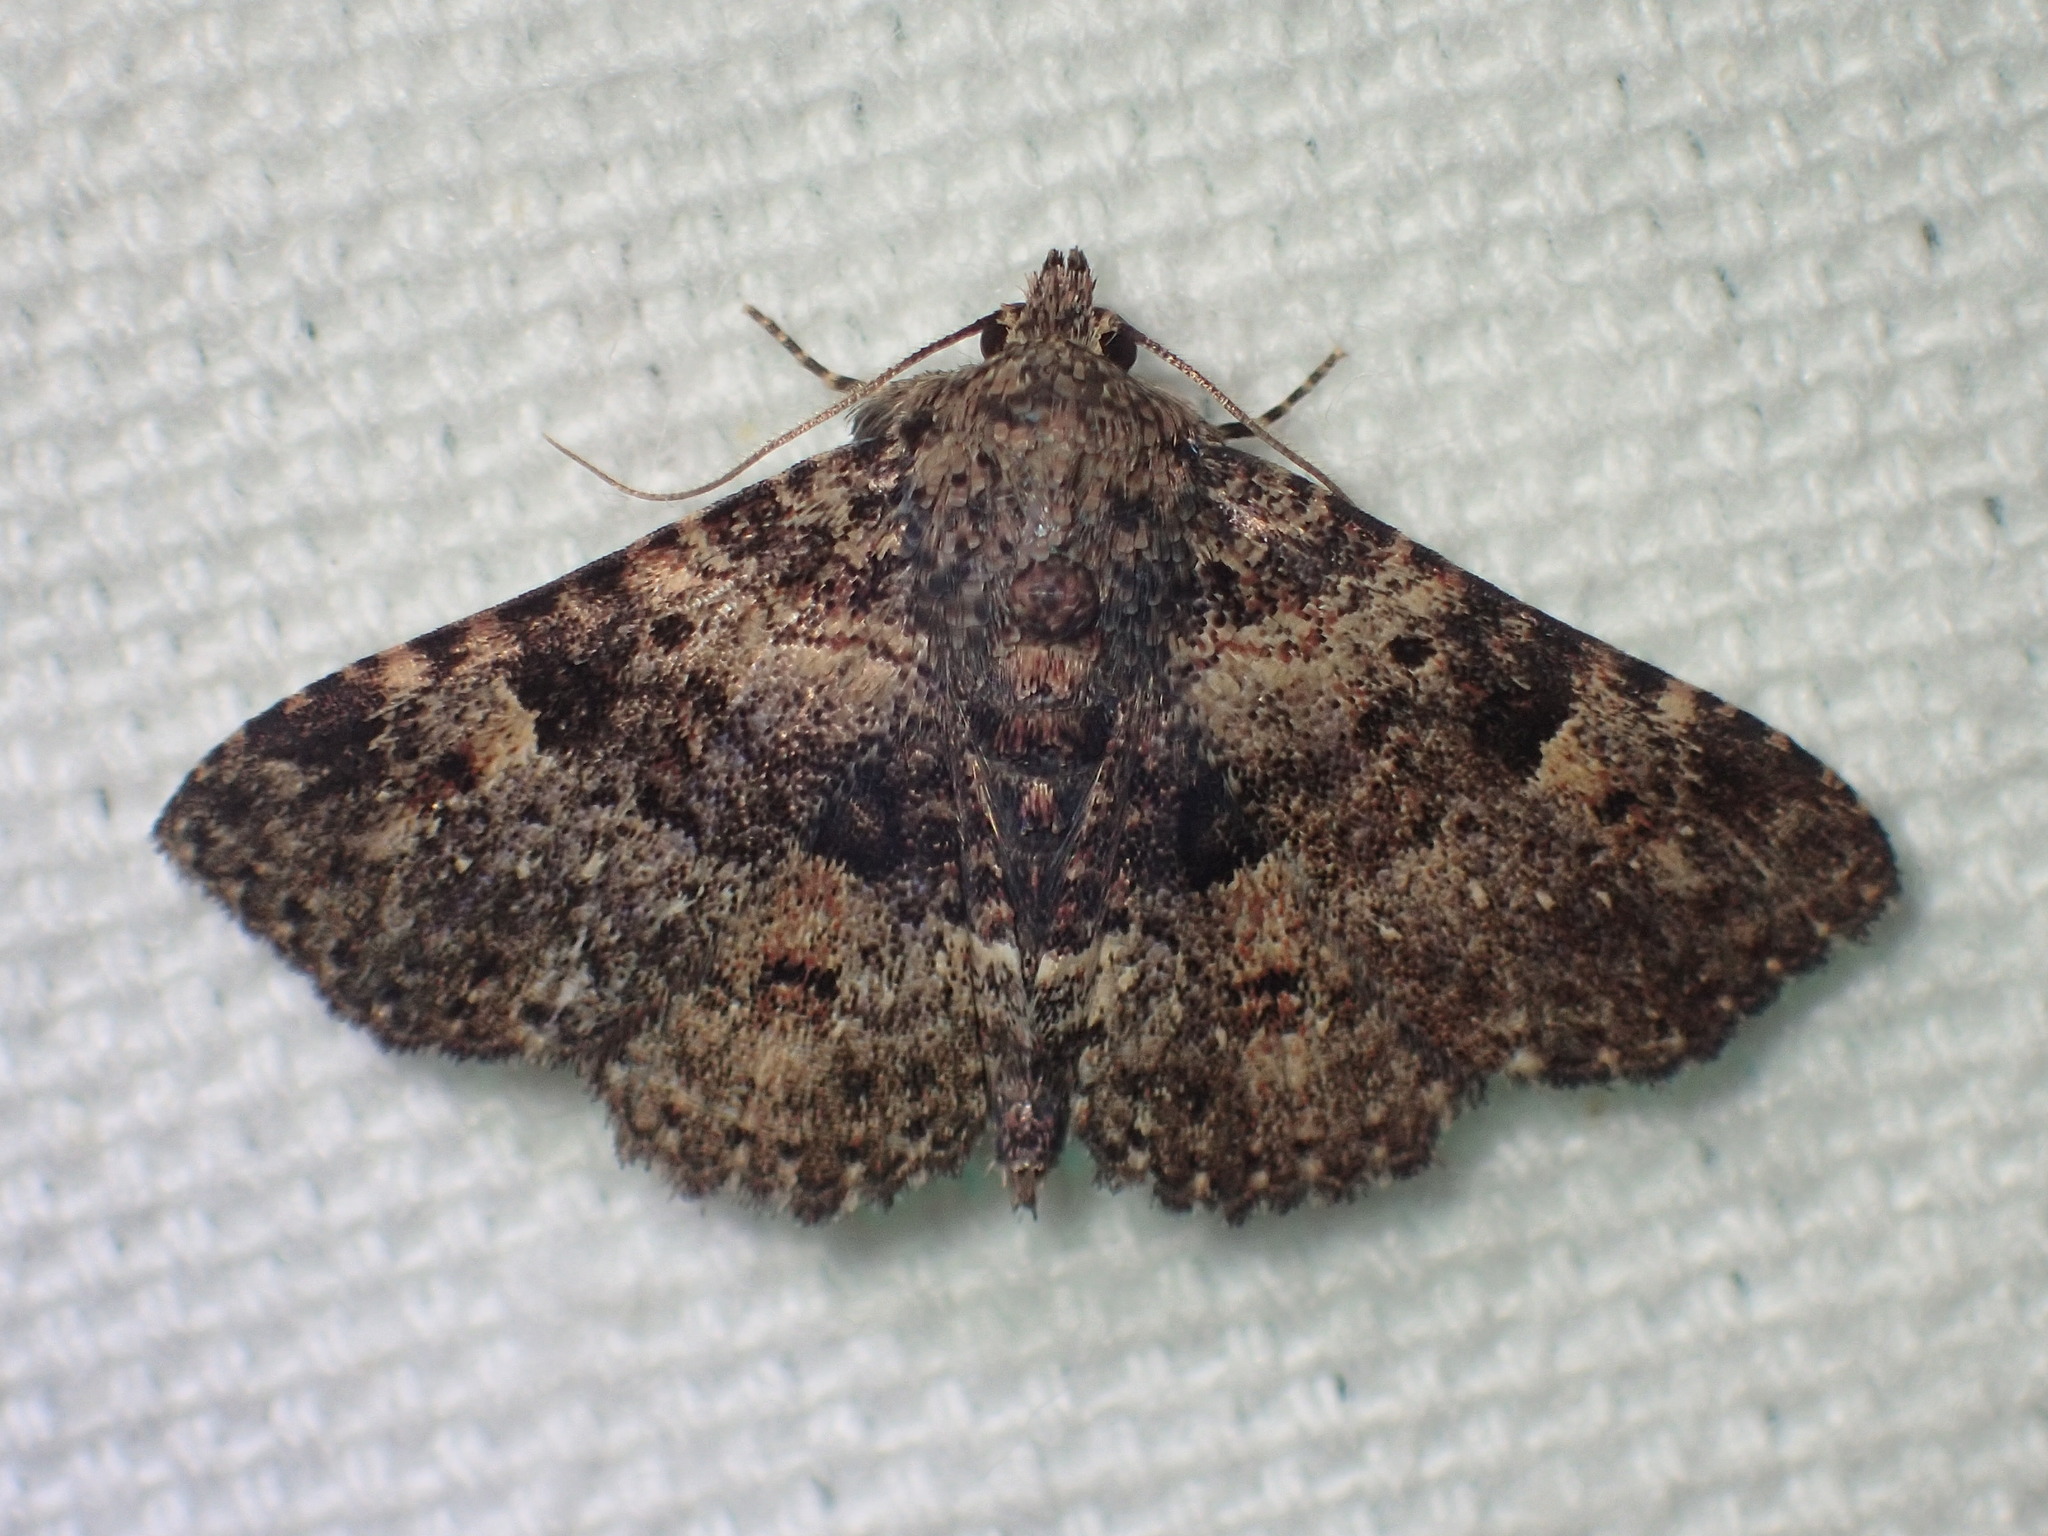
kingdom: Animalia
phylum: Arthropoda
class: Insecta
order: Lepidoptera
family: Erebidae
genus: Metalectra
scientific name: Metalectra discalis
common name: Common fungus moth
